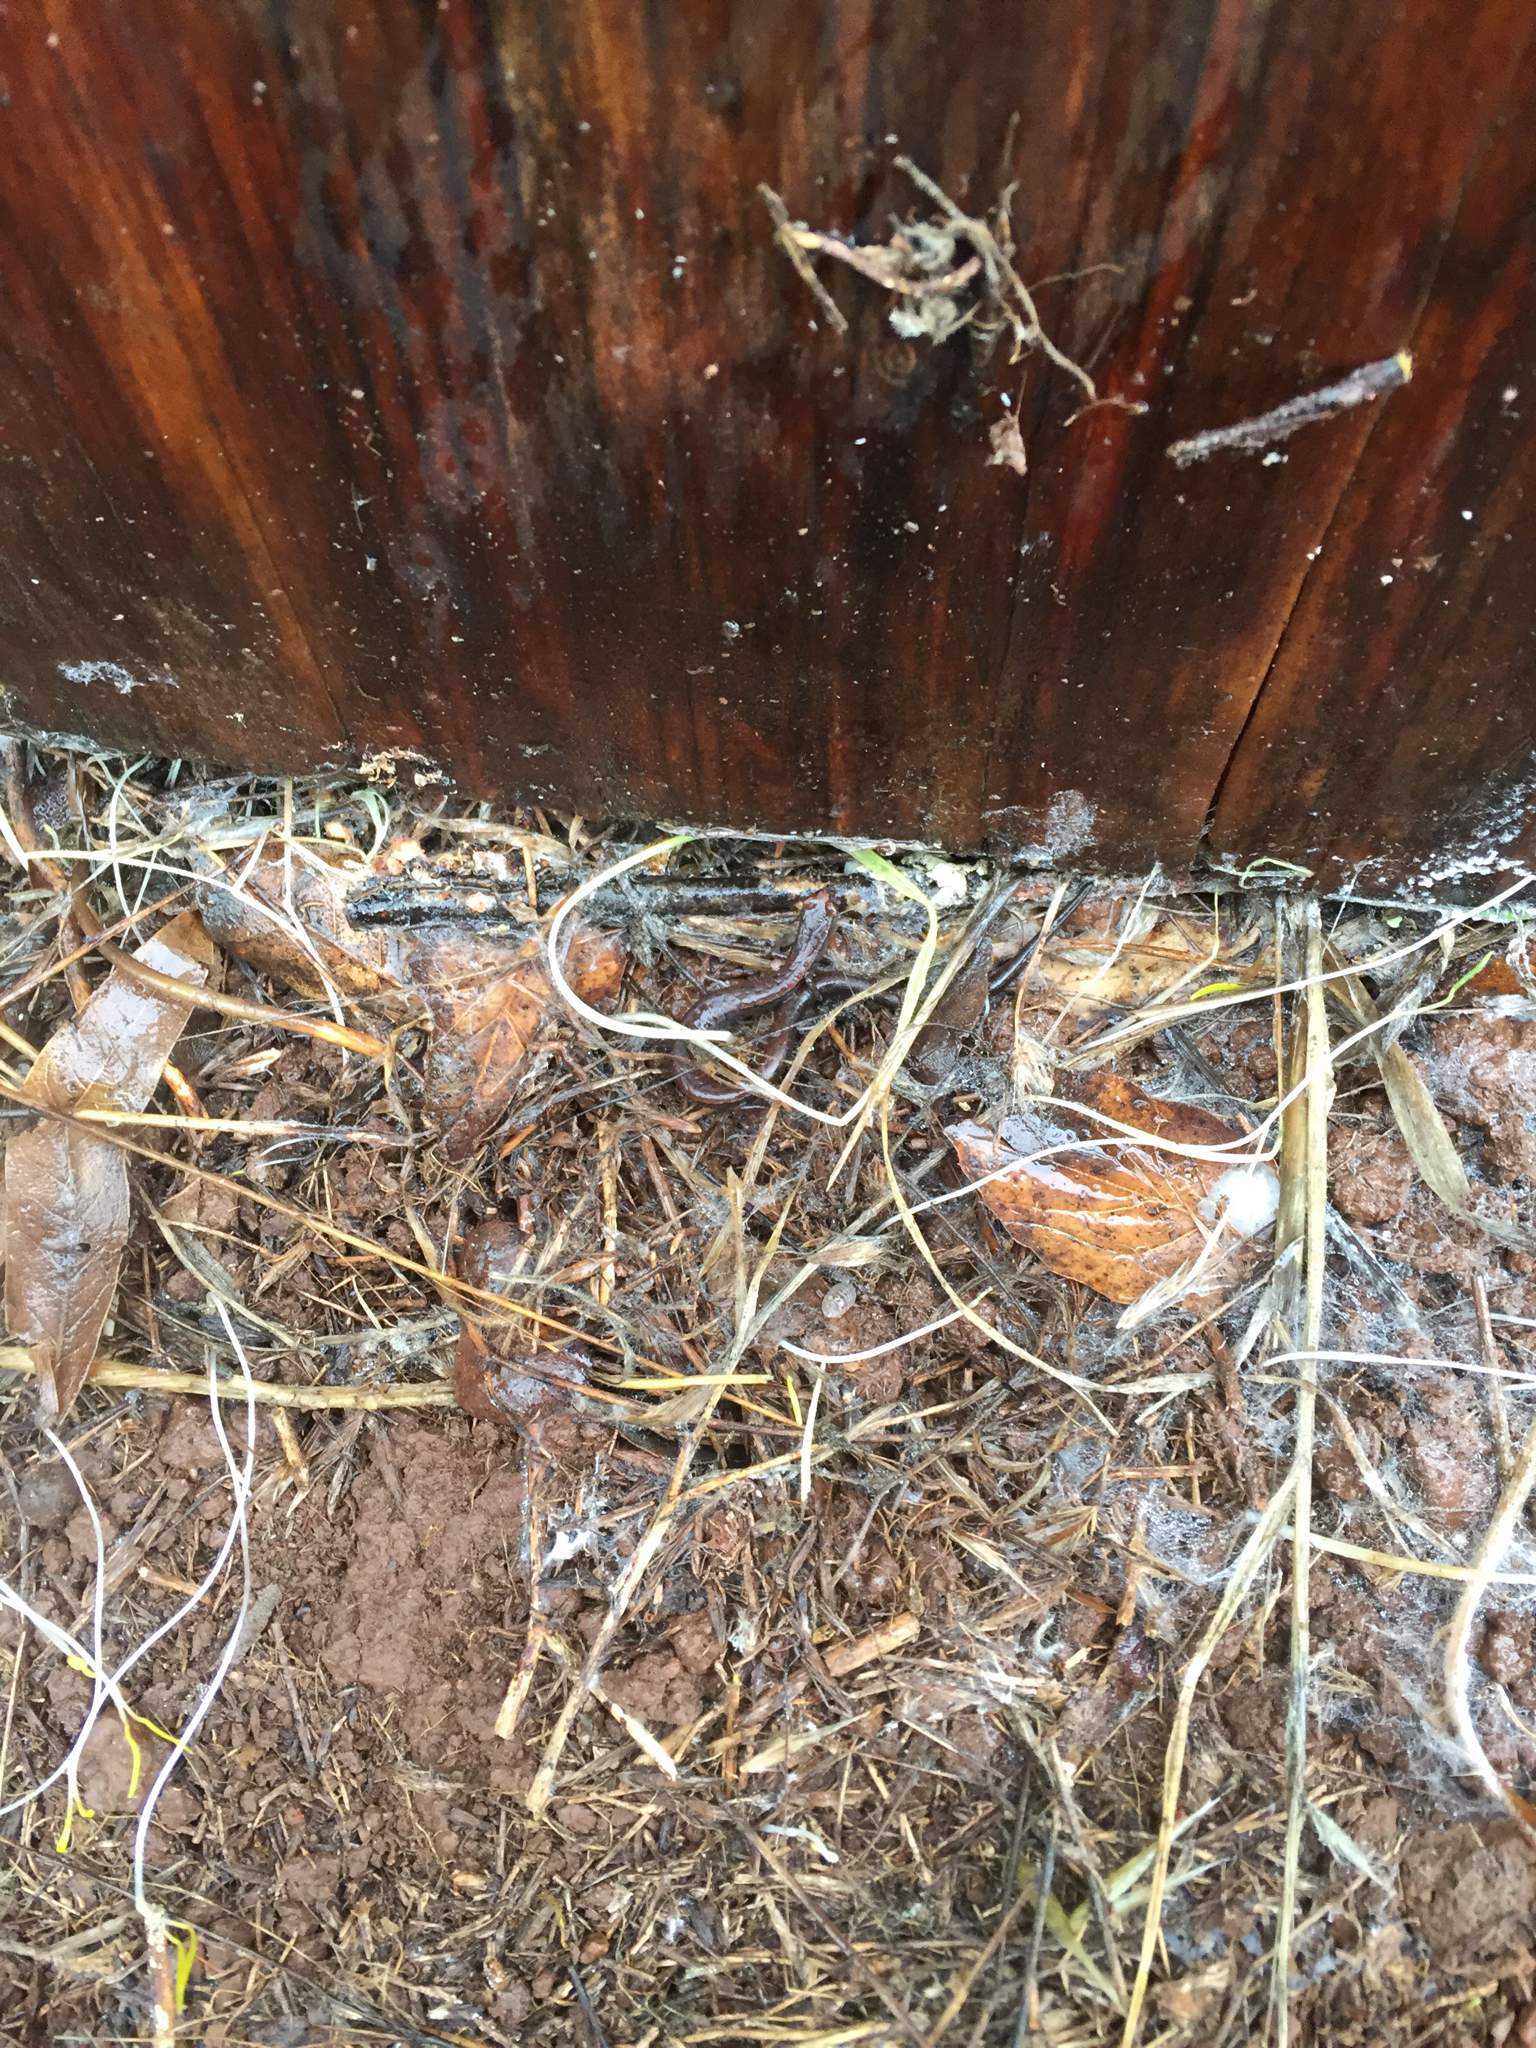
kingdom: Animalia
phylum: Chordata
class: Amphibia
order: Caudata
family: Plethodontidae
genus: Batrachoseps
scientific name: Batrachoseps attenuatus
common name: California slender salamander
